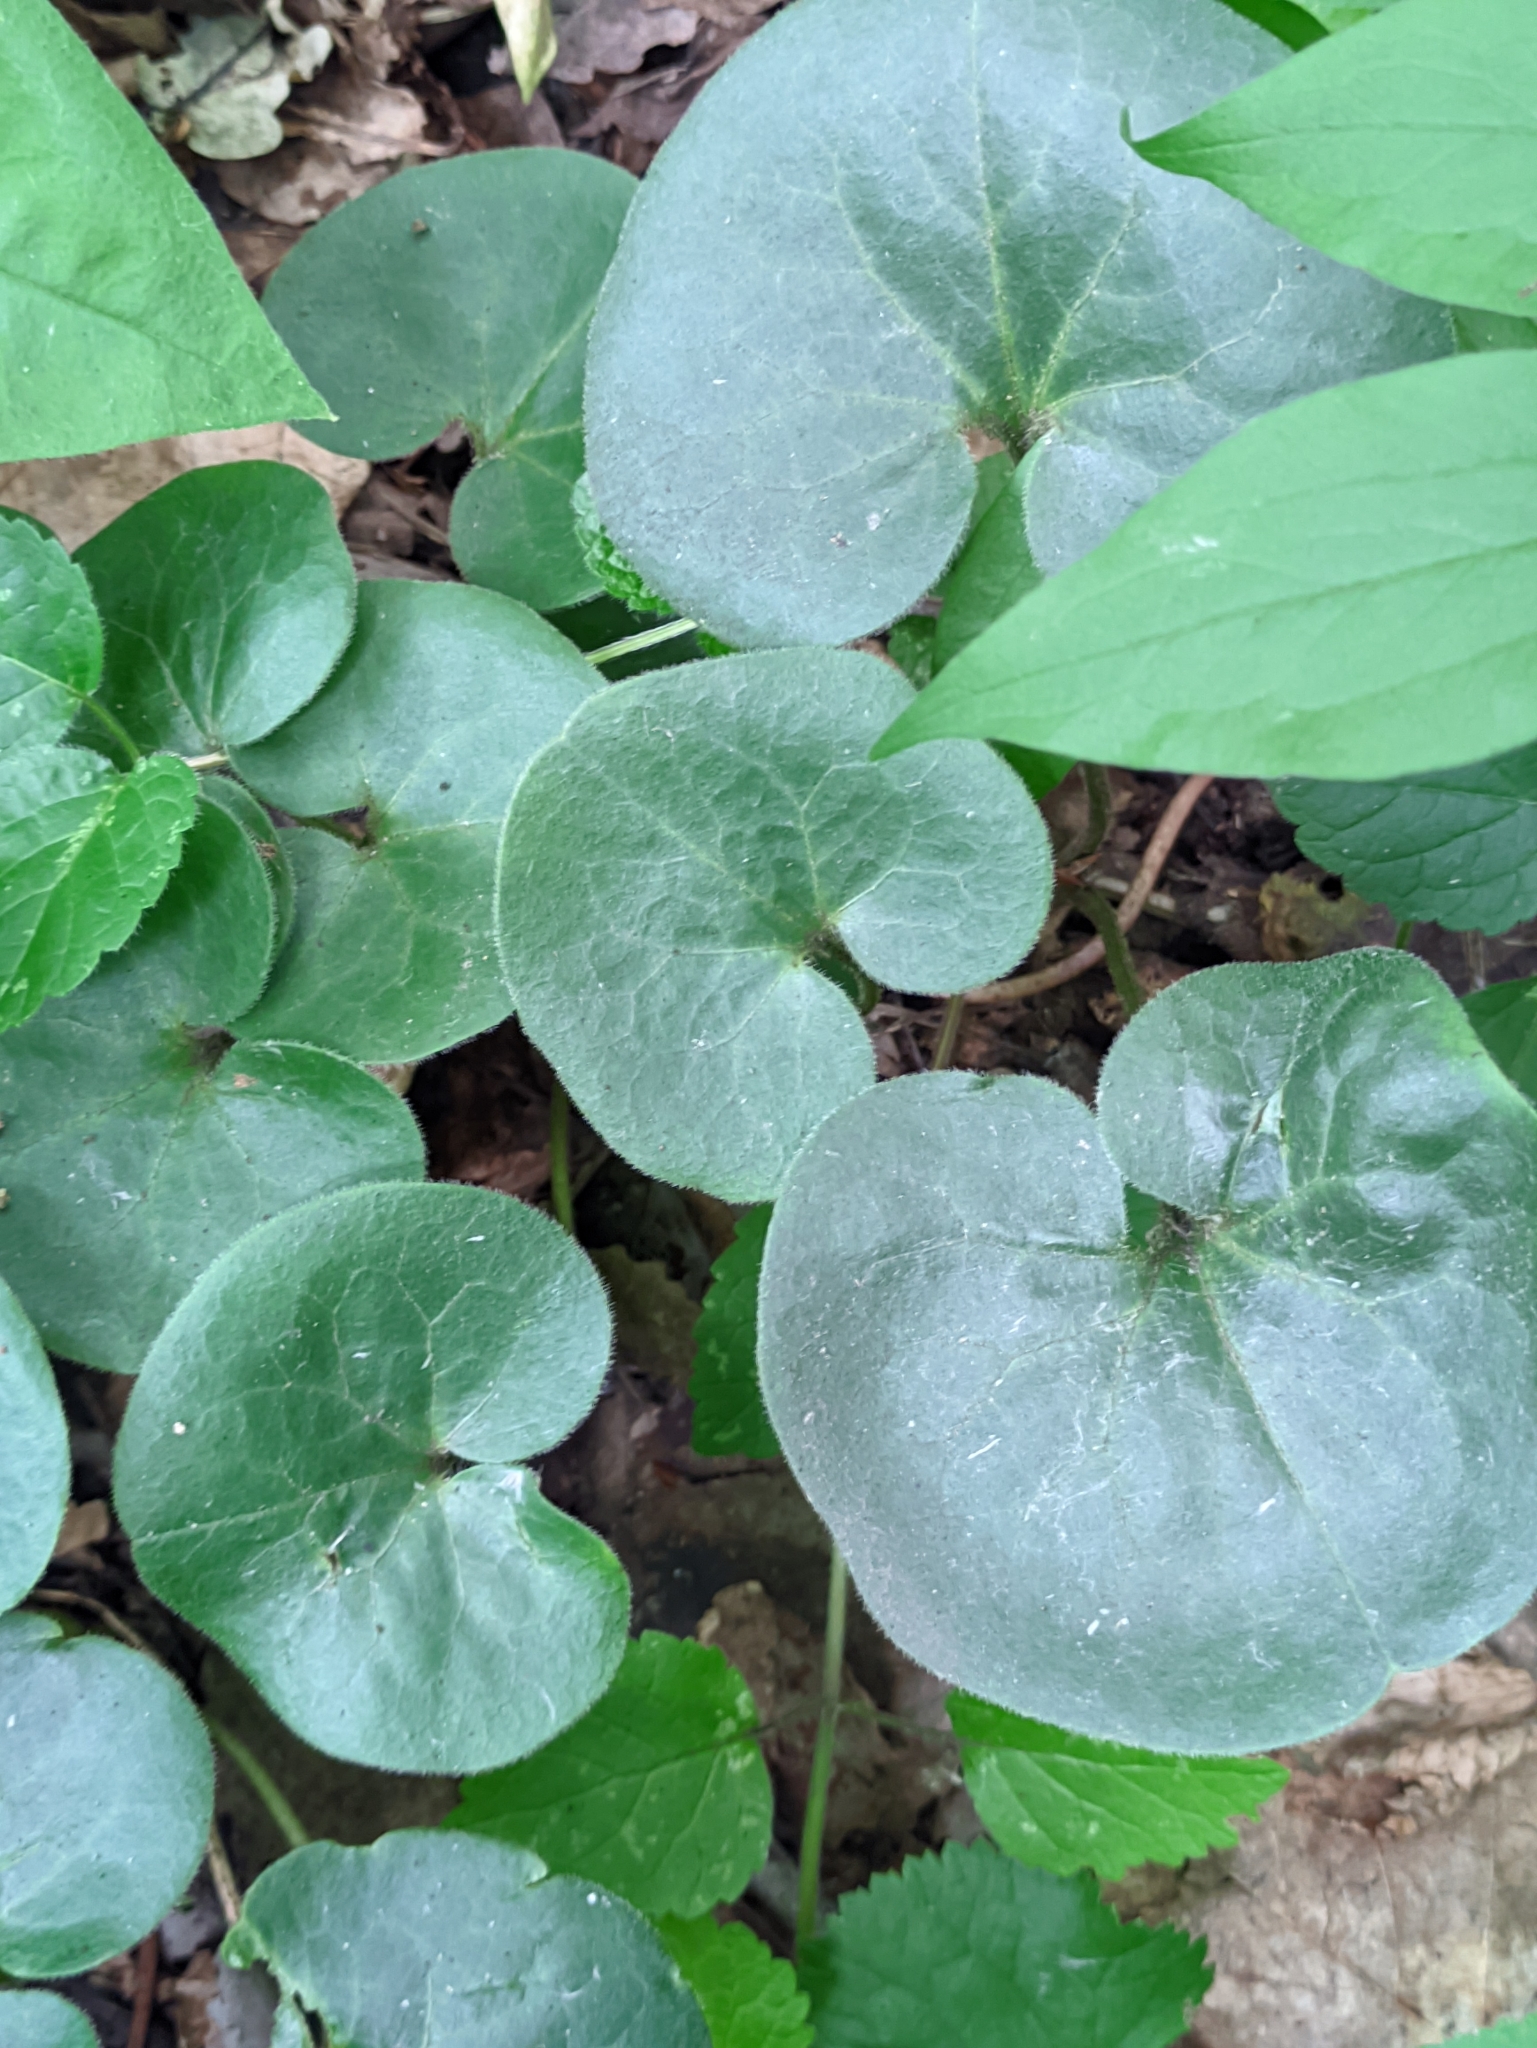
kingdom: Plantae
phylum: Tracheophyta
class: Magnoliopsida
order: Piperales
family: Aristolochiaceae
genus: Asarum
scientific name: Asarum europaeum
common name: Asarabacca
